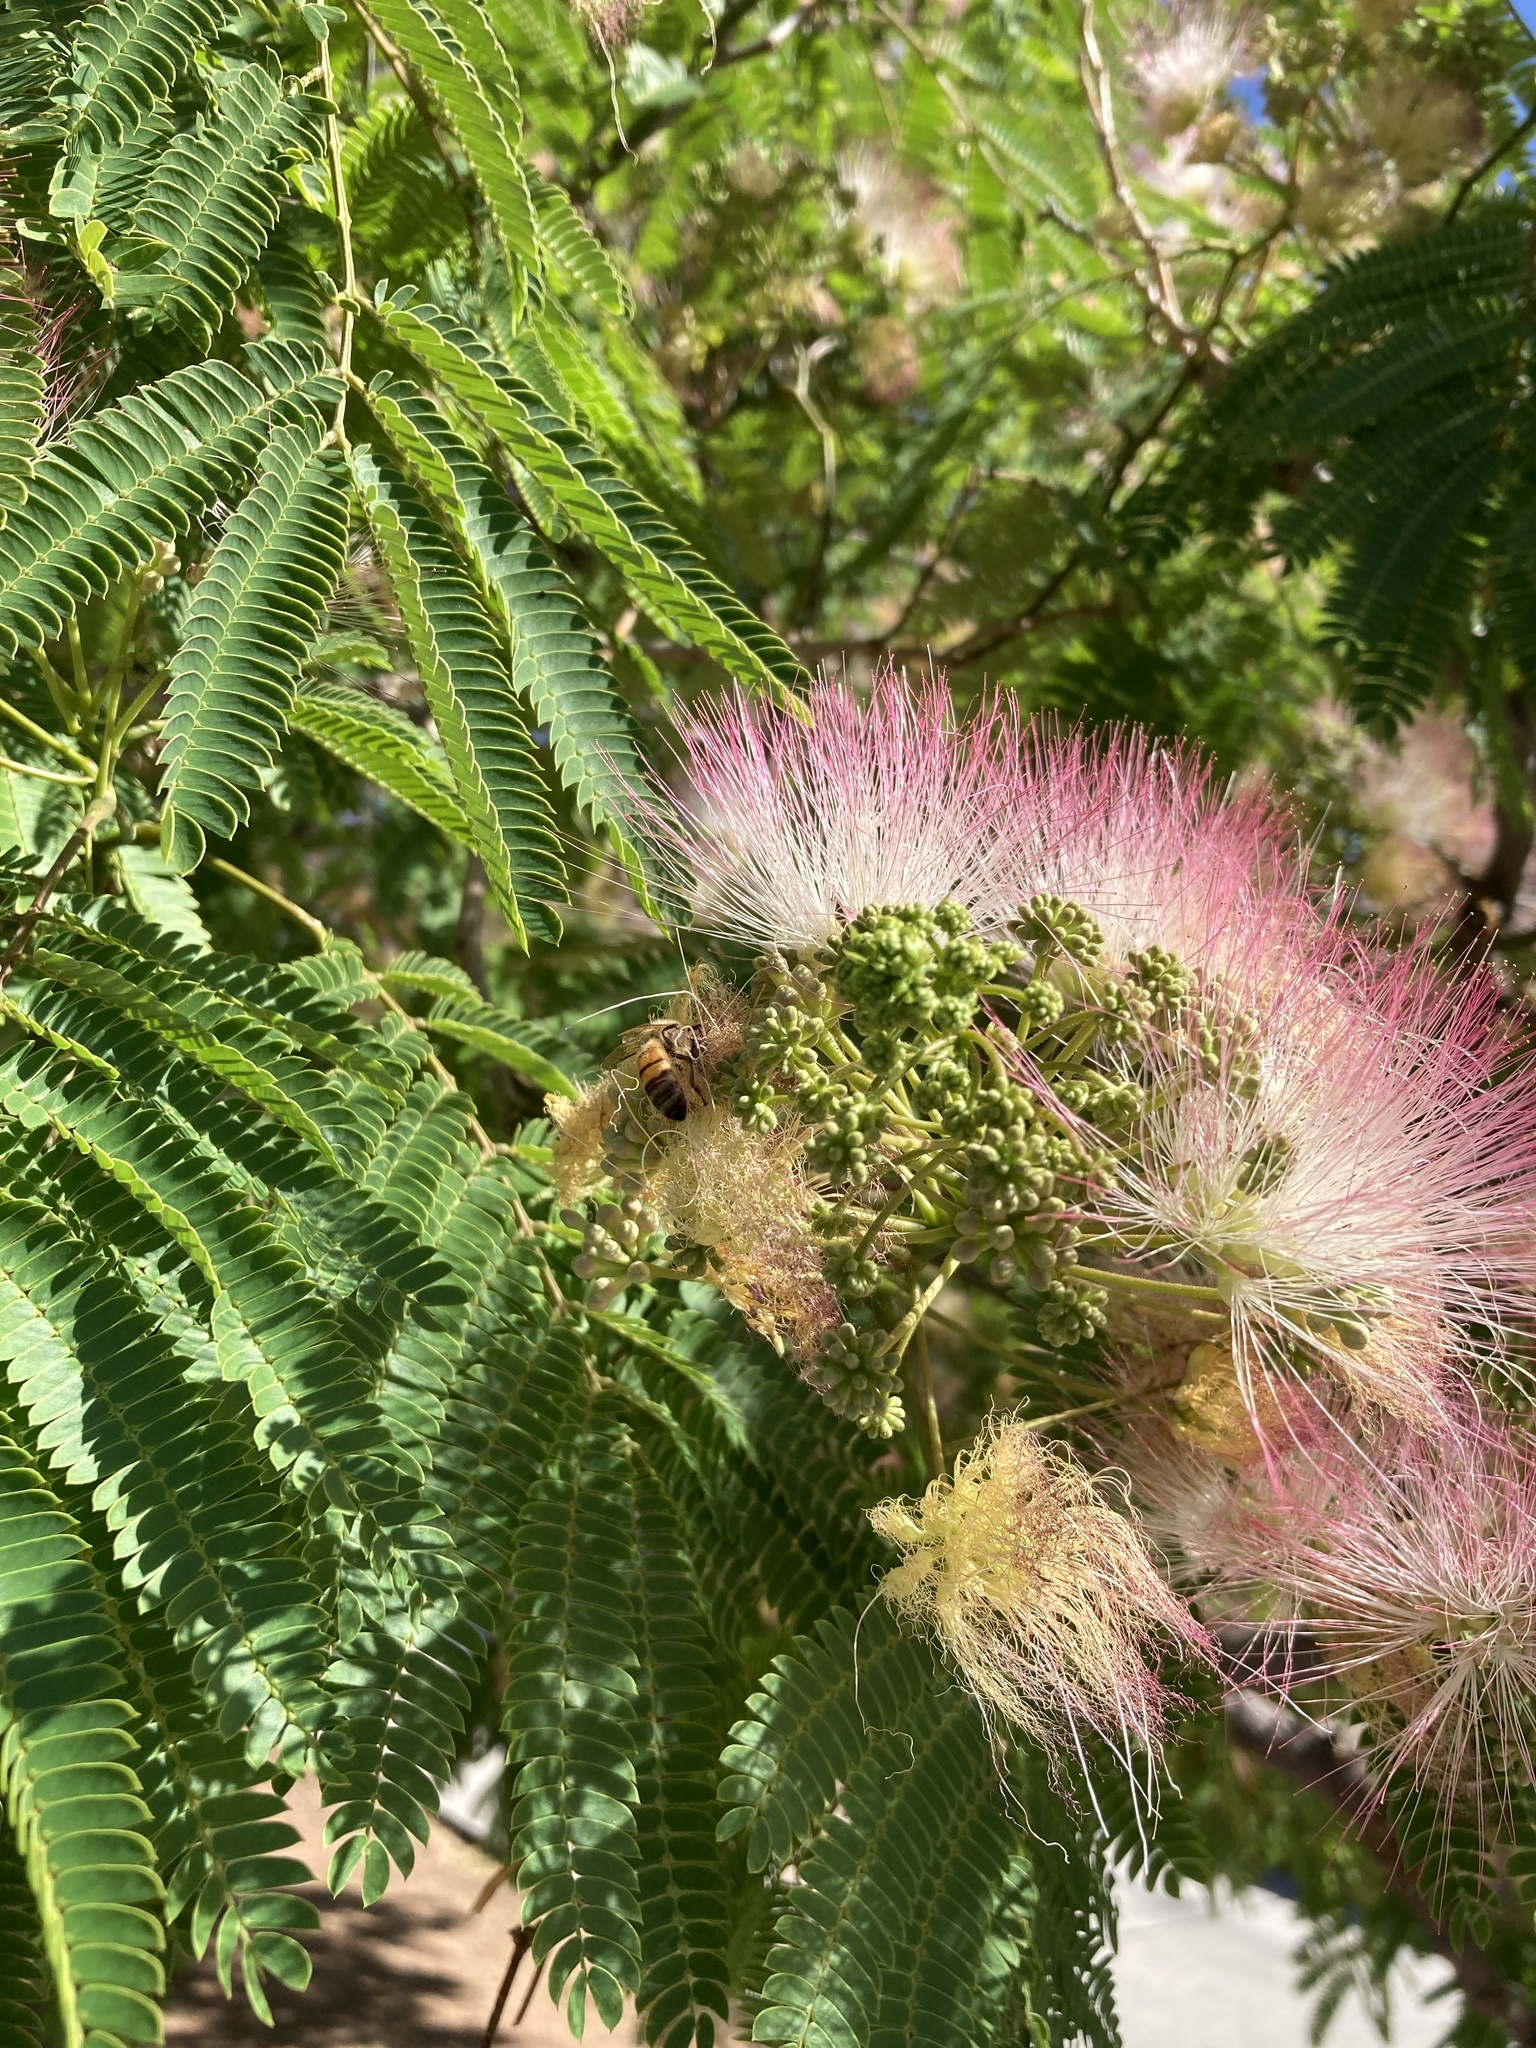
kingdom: Animalia
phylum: Arthropoda
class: Insecta
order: Hymenoptera
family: Apidae
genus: Apis
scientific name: Apis mellifera
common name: Honey bee
